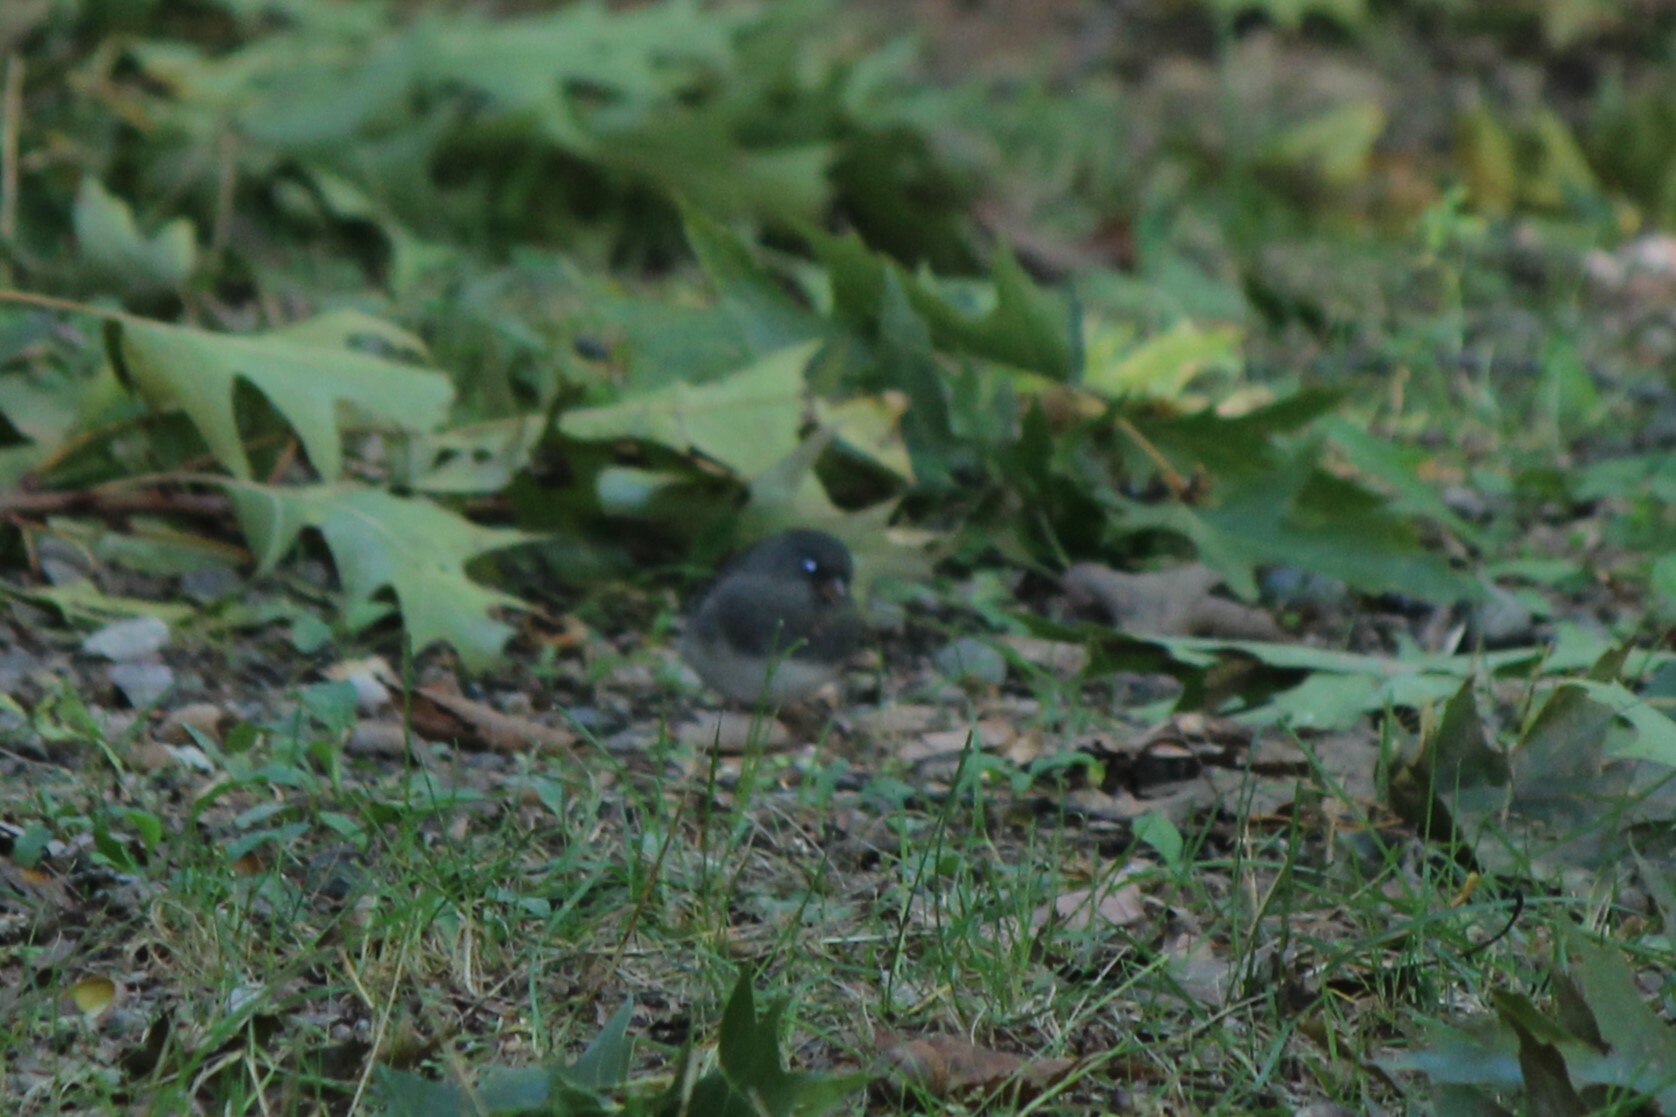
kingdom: Animalia
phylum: Chordata
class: Aves
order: Passeriformes
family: Passerellidae
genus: Junco
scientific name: Junco hyemalis
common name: Dark-eyed junco
